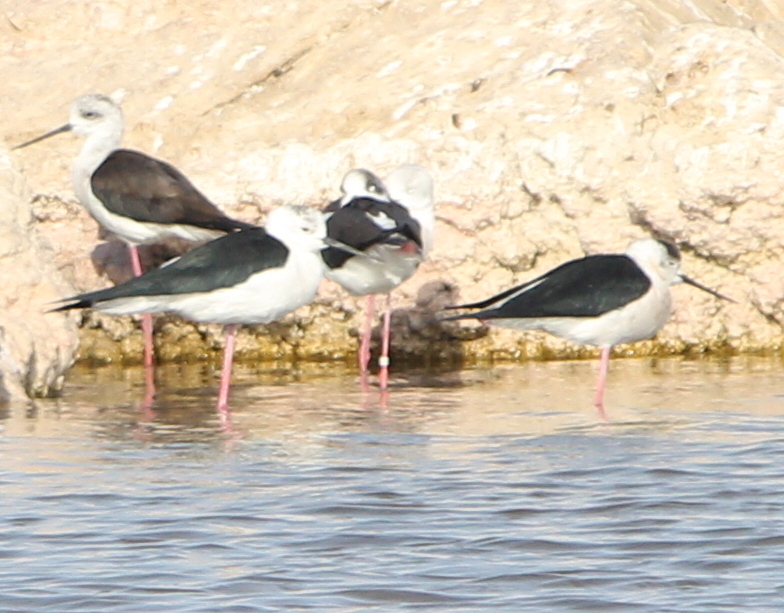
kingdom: Animalia
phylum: Chordata
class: Aves
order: Charadriiformes
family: Recurvirostridae
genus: Himantopus
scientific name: Himantopus himantopus
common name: Black-winged stilt
